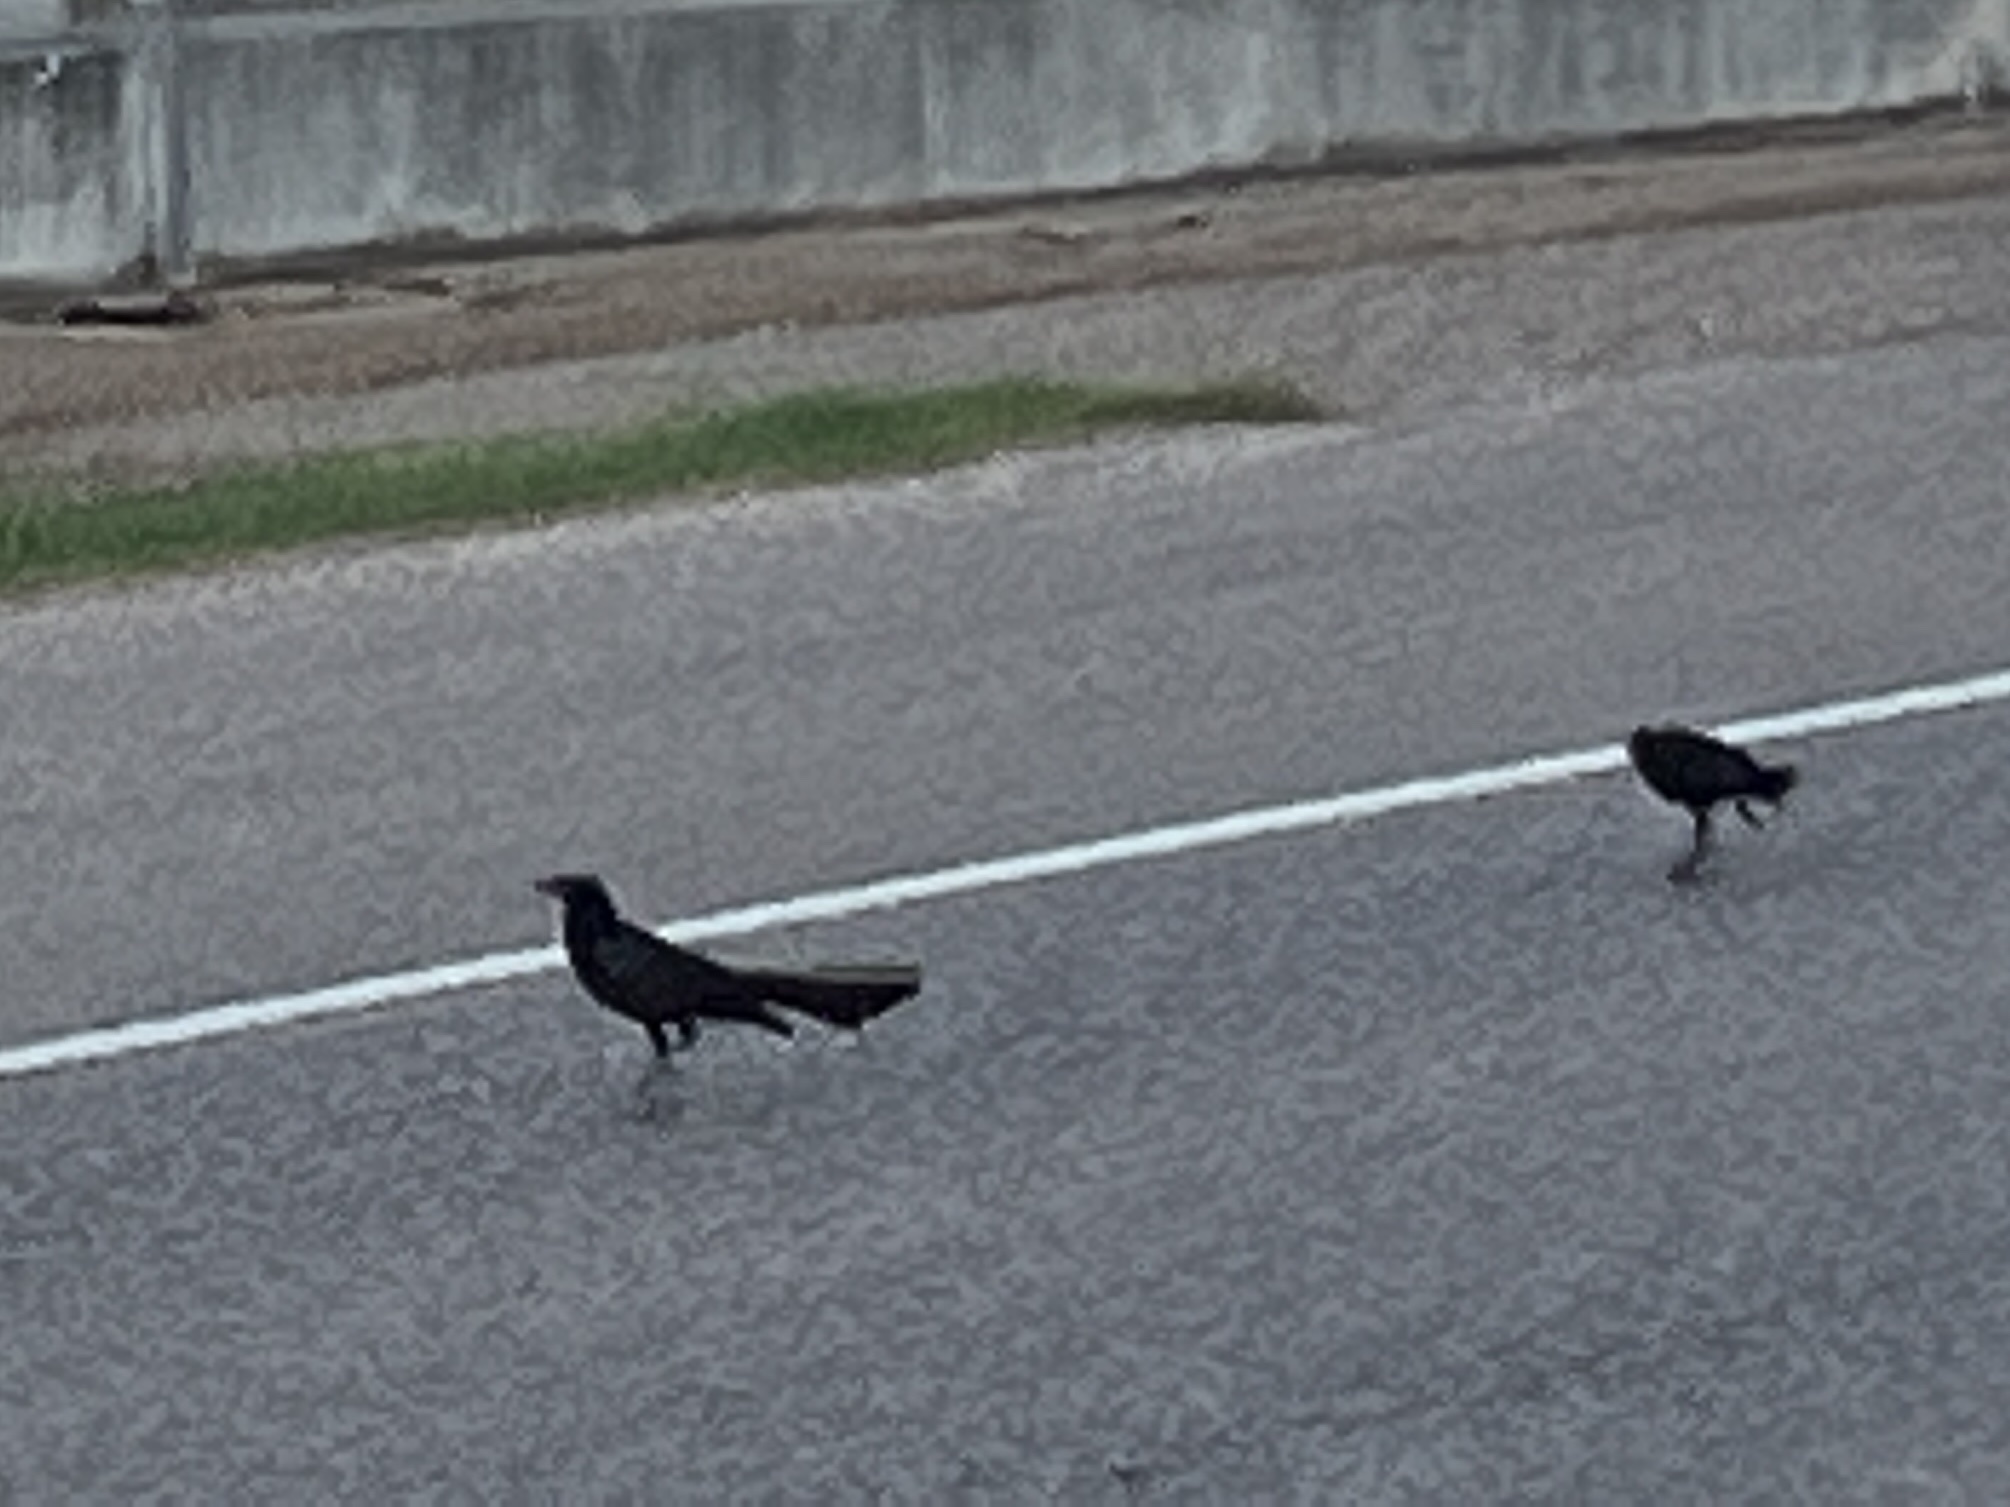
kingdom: Animalia
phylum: Chordata
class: Aves
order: Passeriformes
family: Icteridae
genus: Quiscalus
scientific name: Quiscalus mexicanus
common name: Great-tailed grackle
